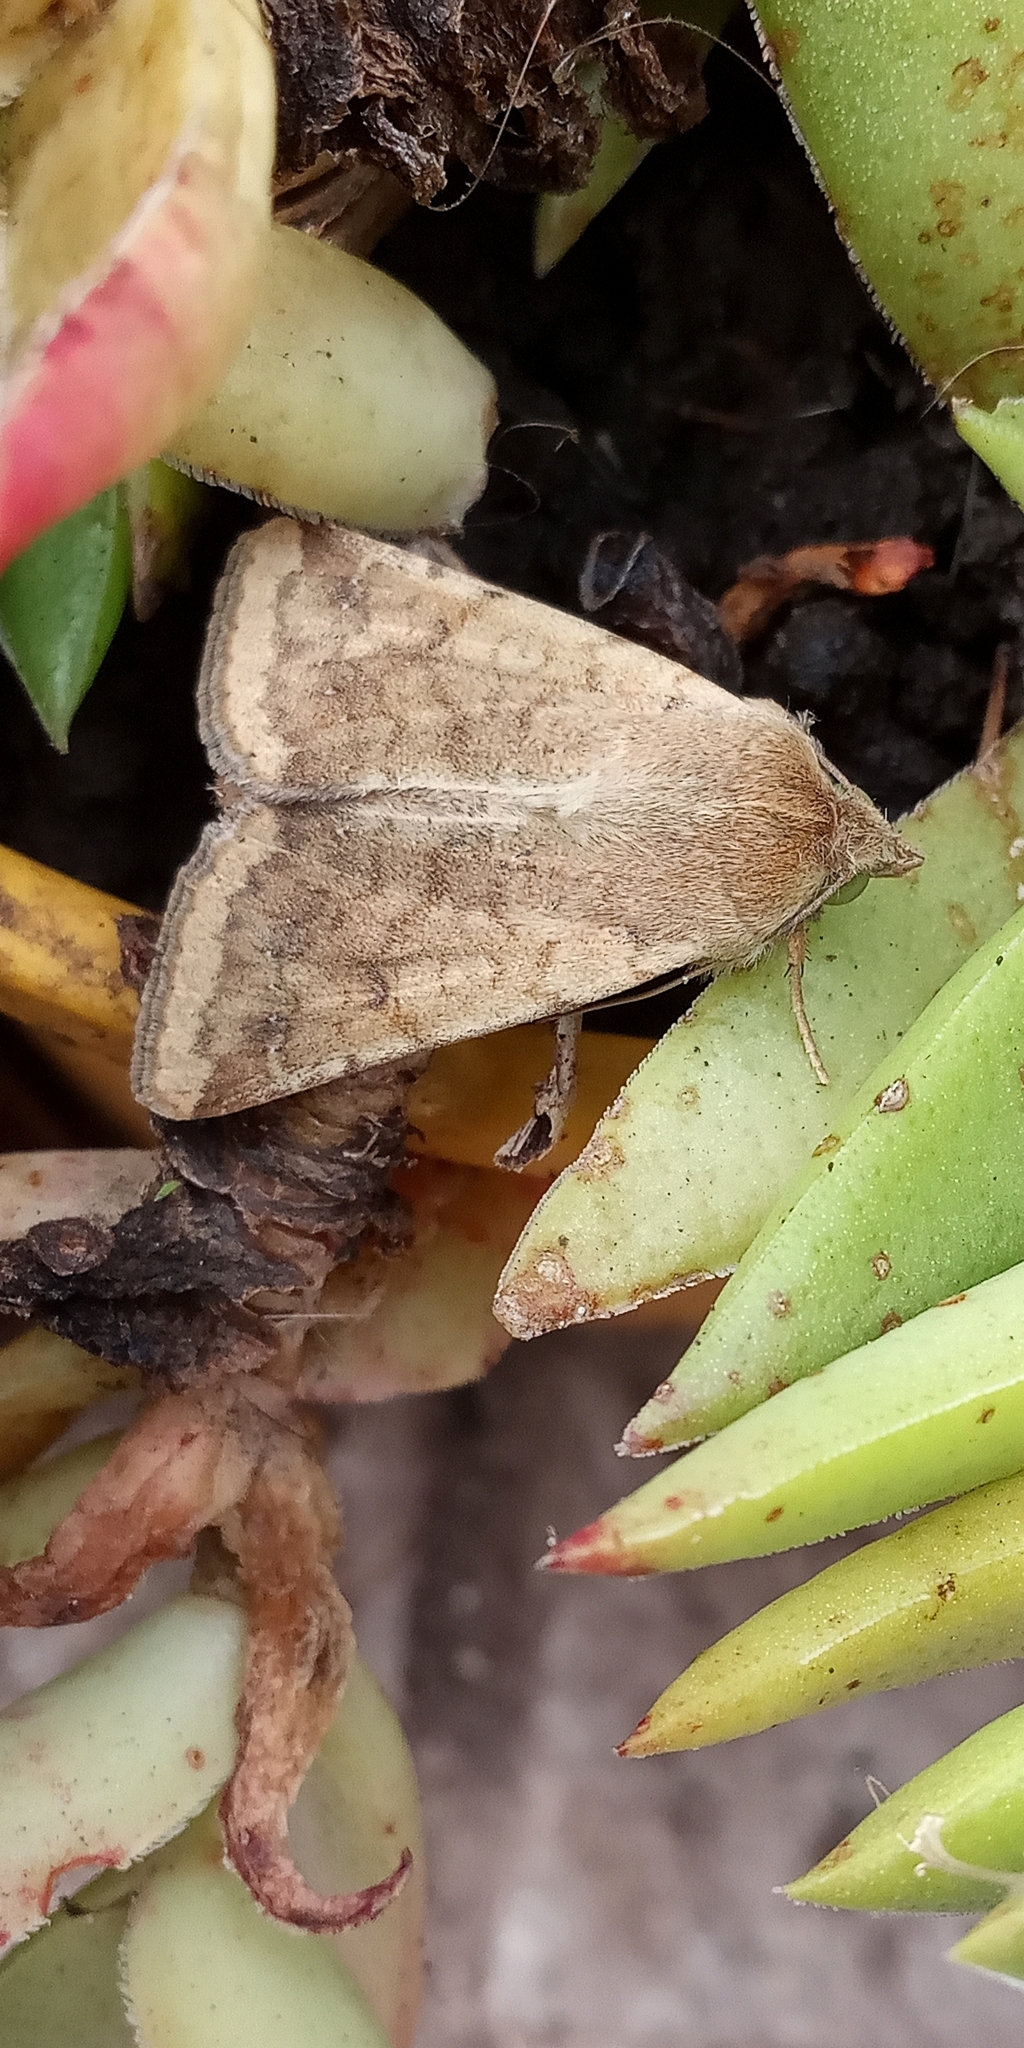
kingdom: Animalia
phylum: Arthropoda
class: Insecta
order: Lepidoptera
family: Noctuidae
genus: Helicoverpa
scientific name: Helicoverpa
